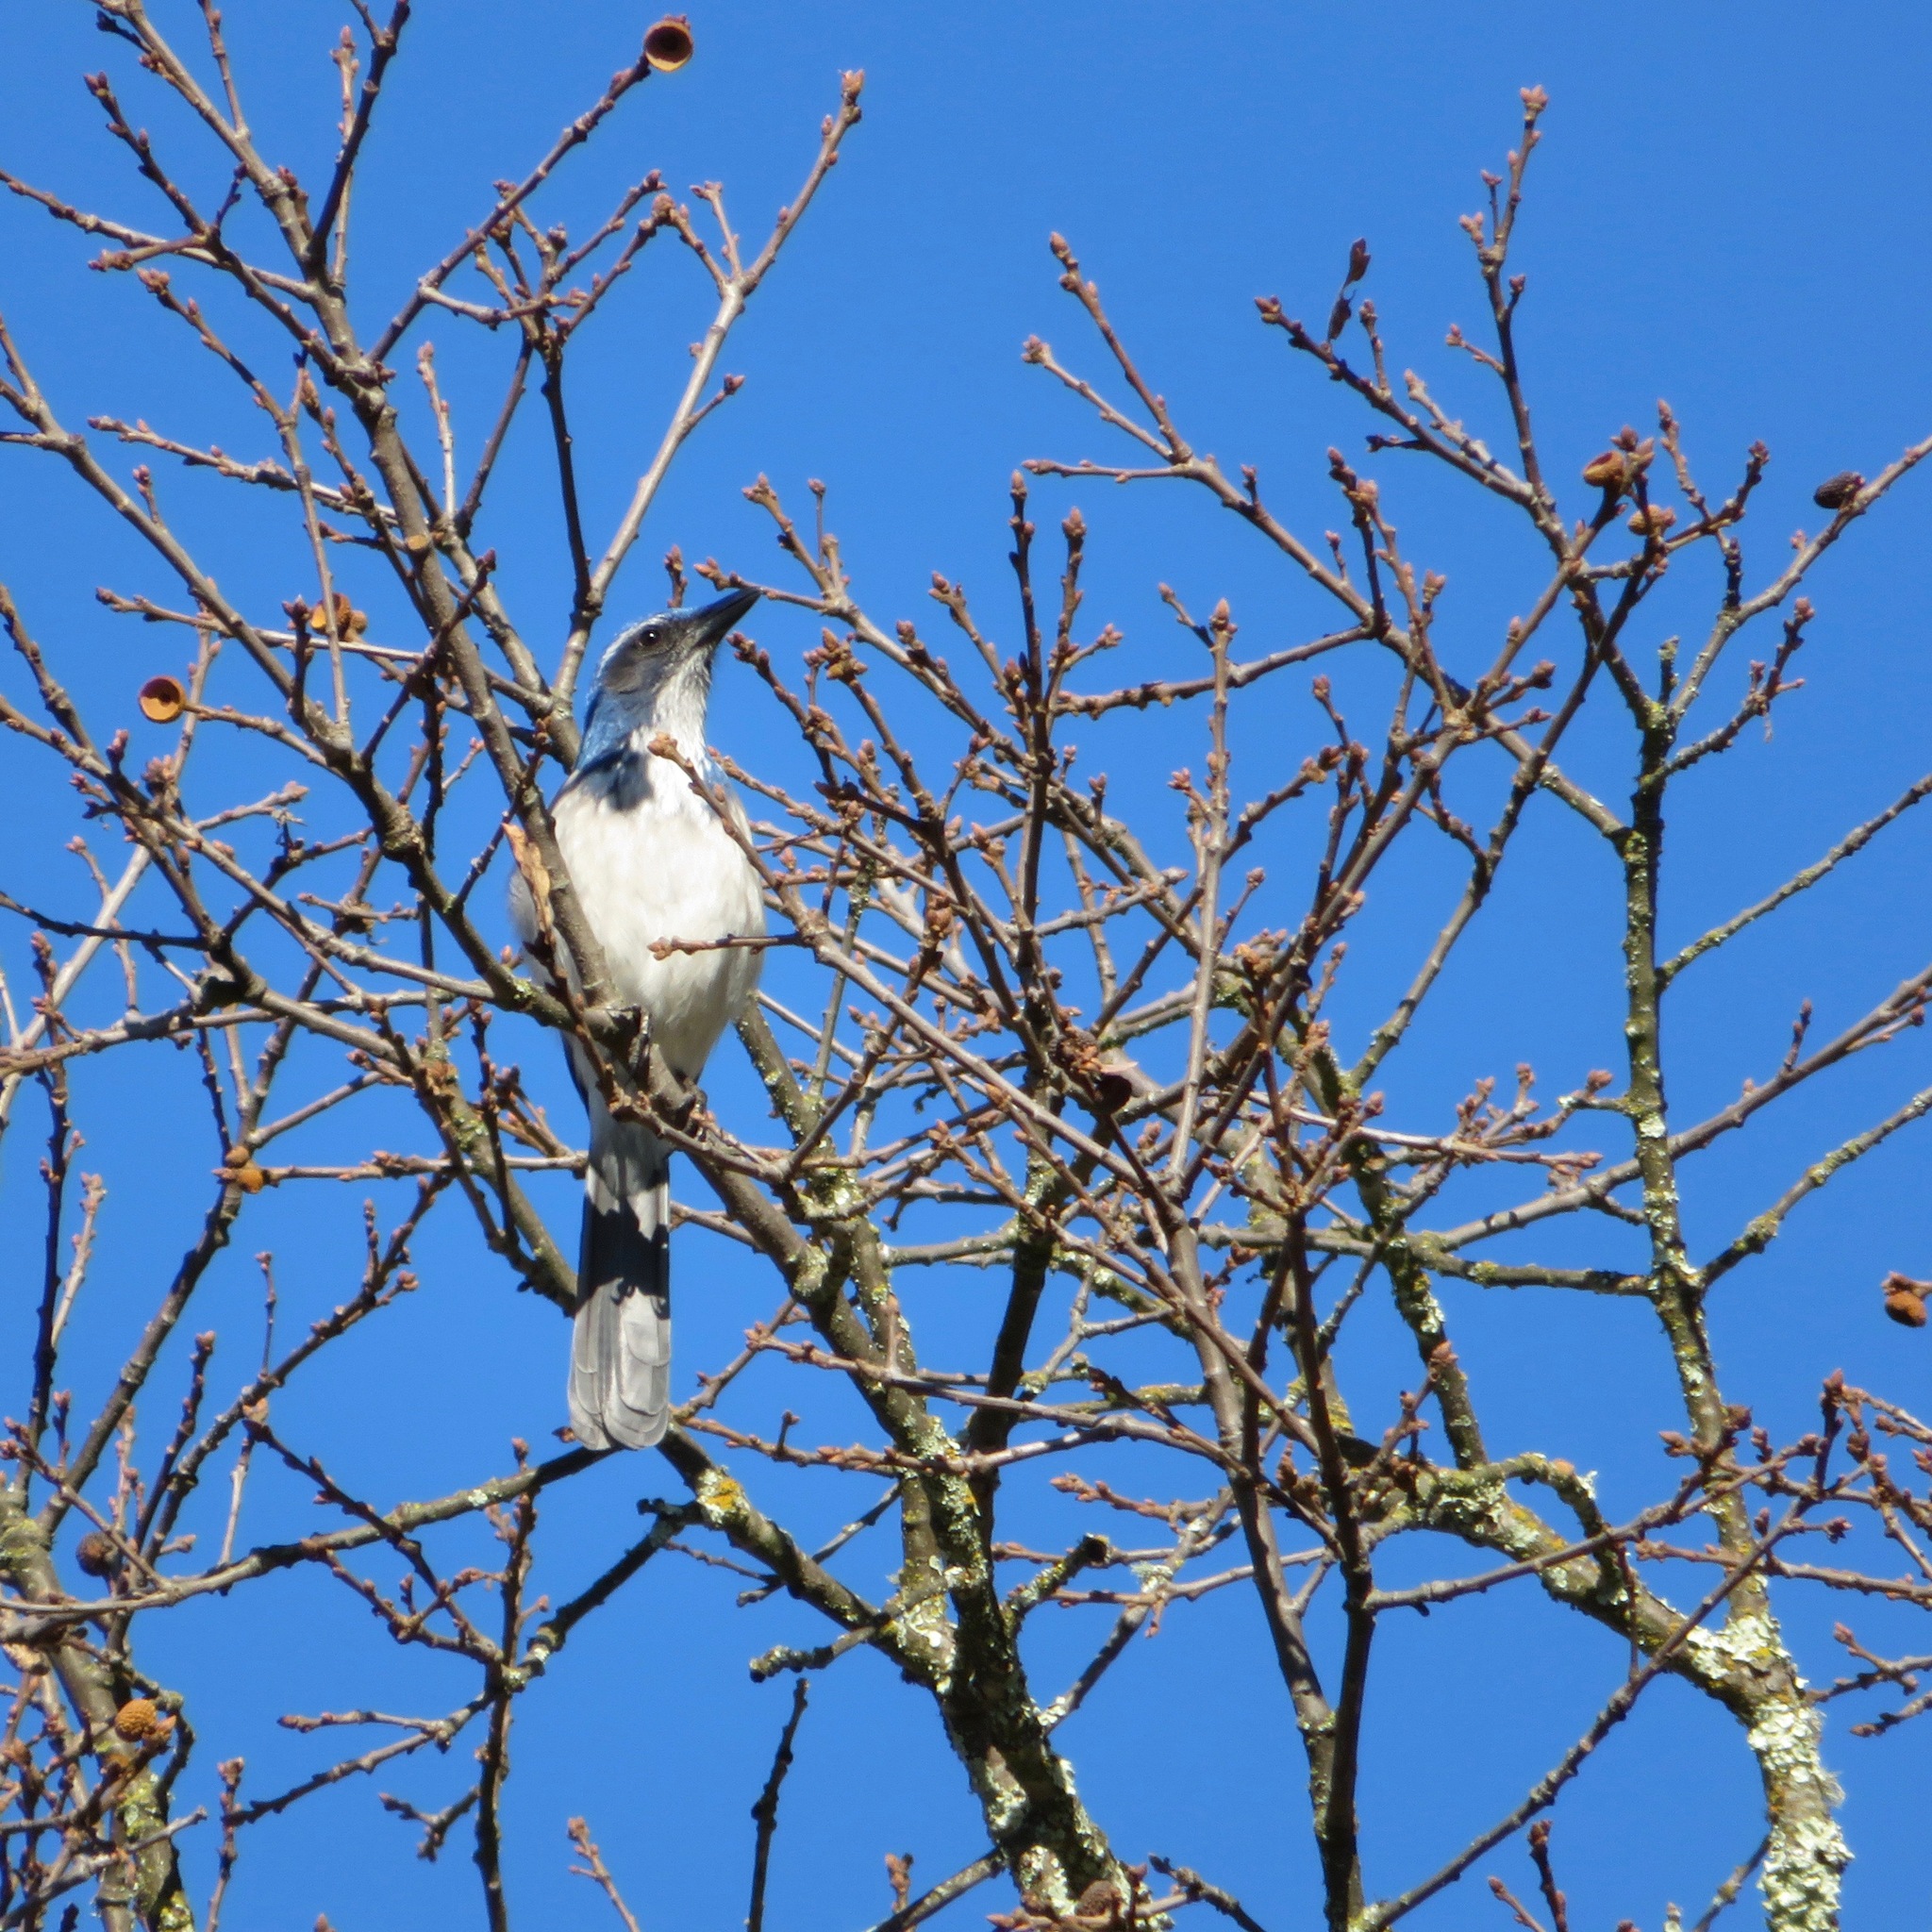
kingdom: Animalia
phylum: Chordata
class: Aves
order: Passeriformes
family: Corvidae
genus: Aphelocoma
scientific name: Aphelocoma californica
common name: California scrub-jay
